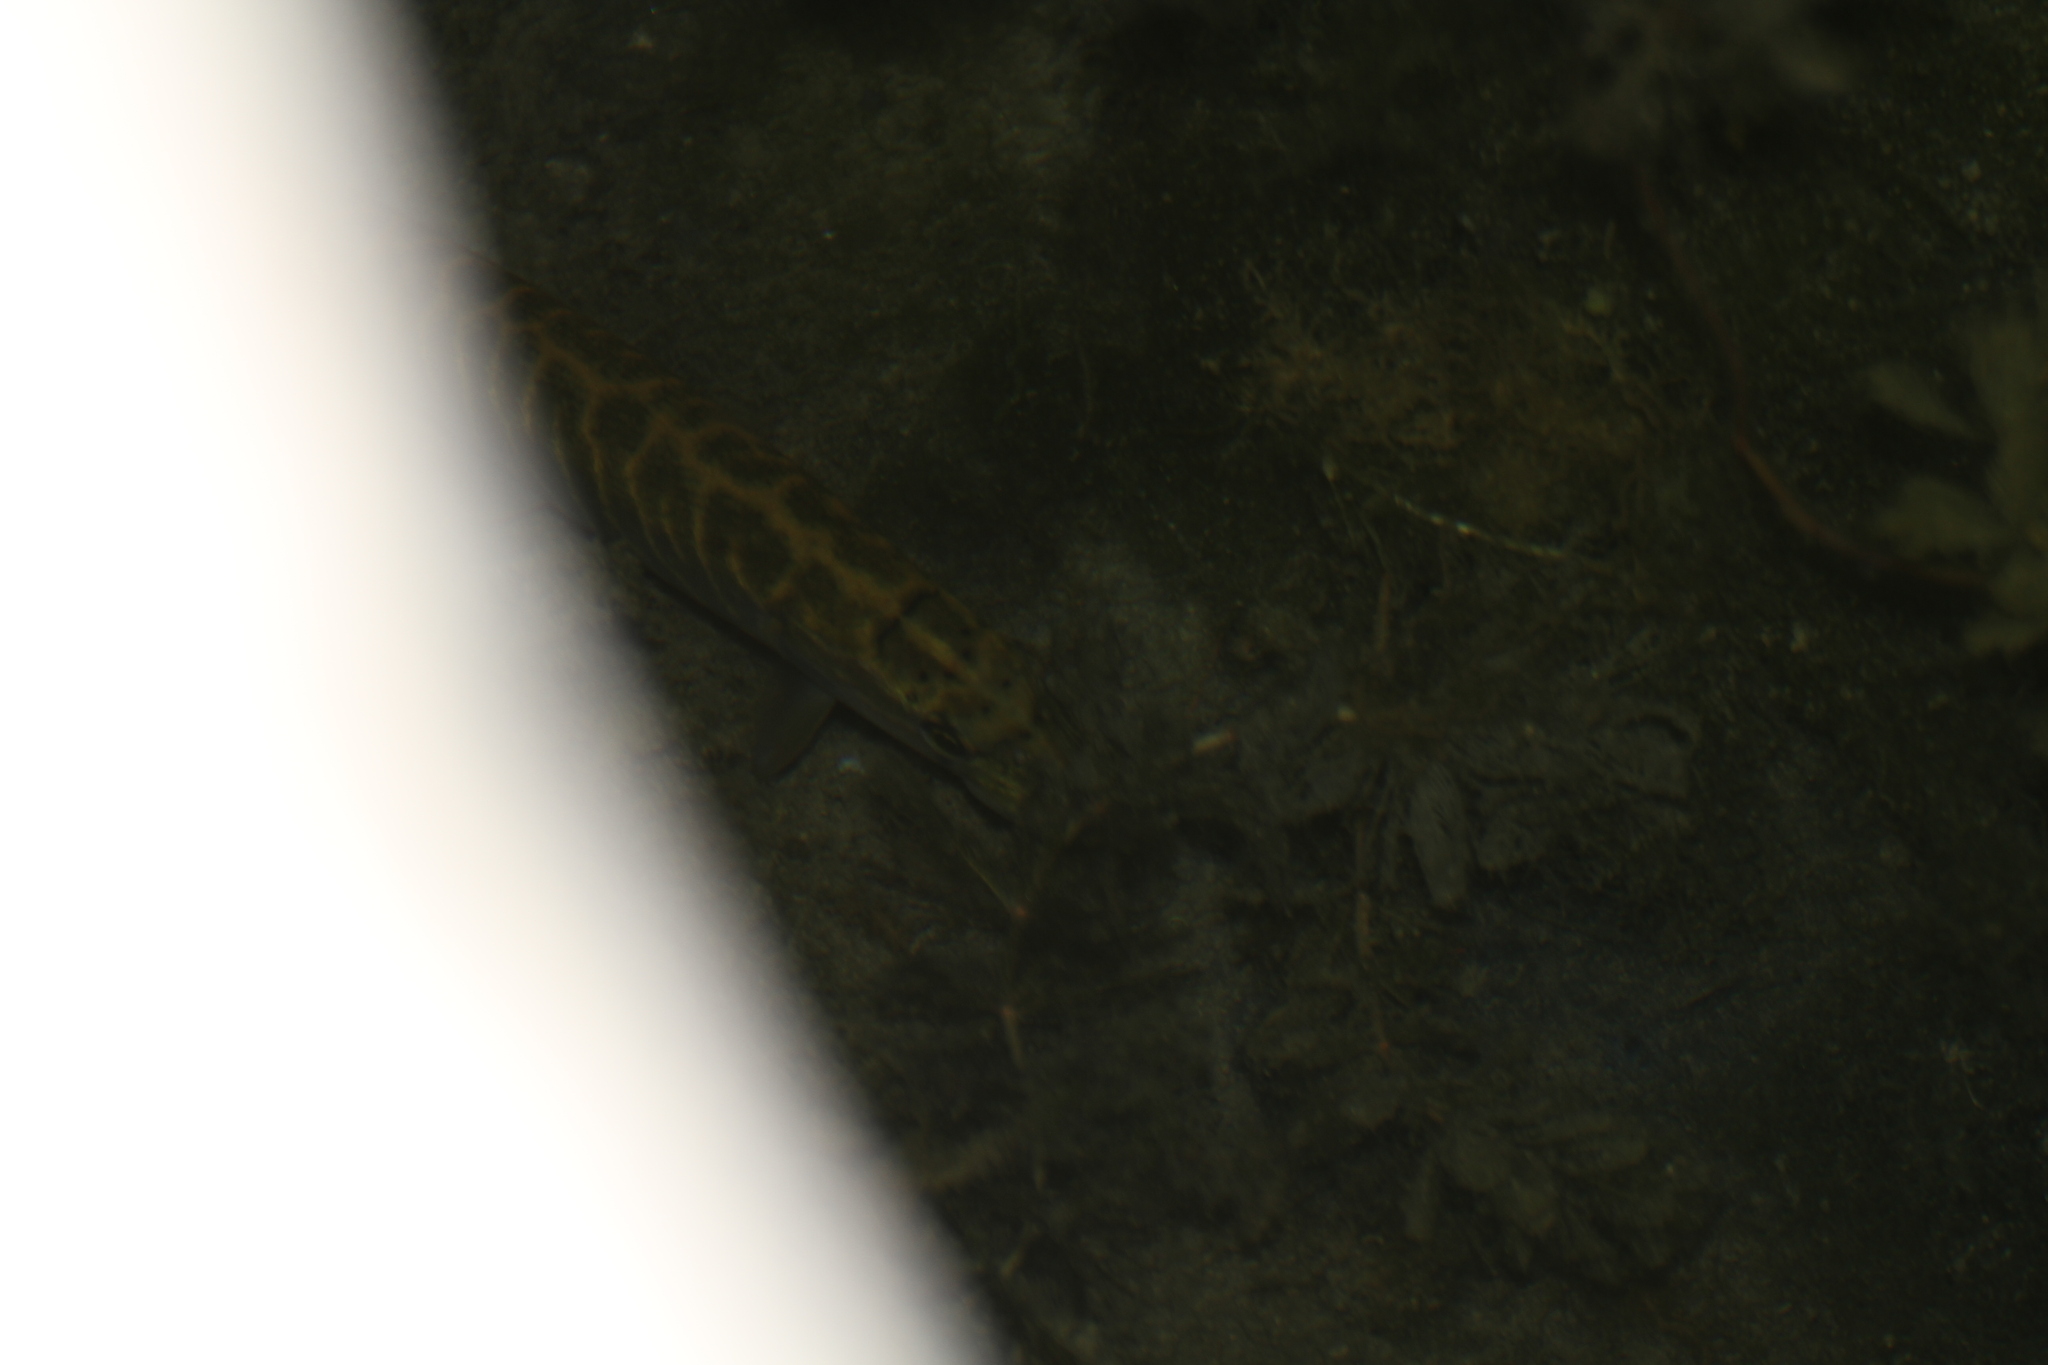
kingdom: Animalia
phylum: Chordata
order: Esociformes
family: Esocidae
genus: Esox
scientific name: Esox lucius
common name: Northern pike
